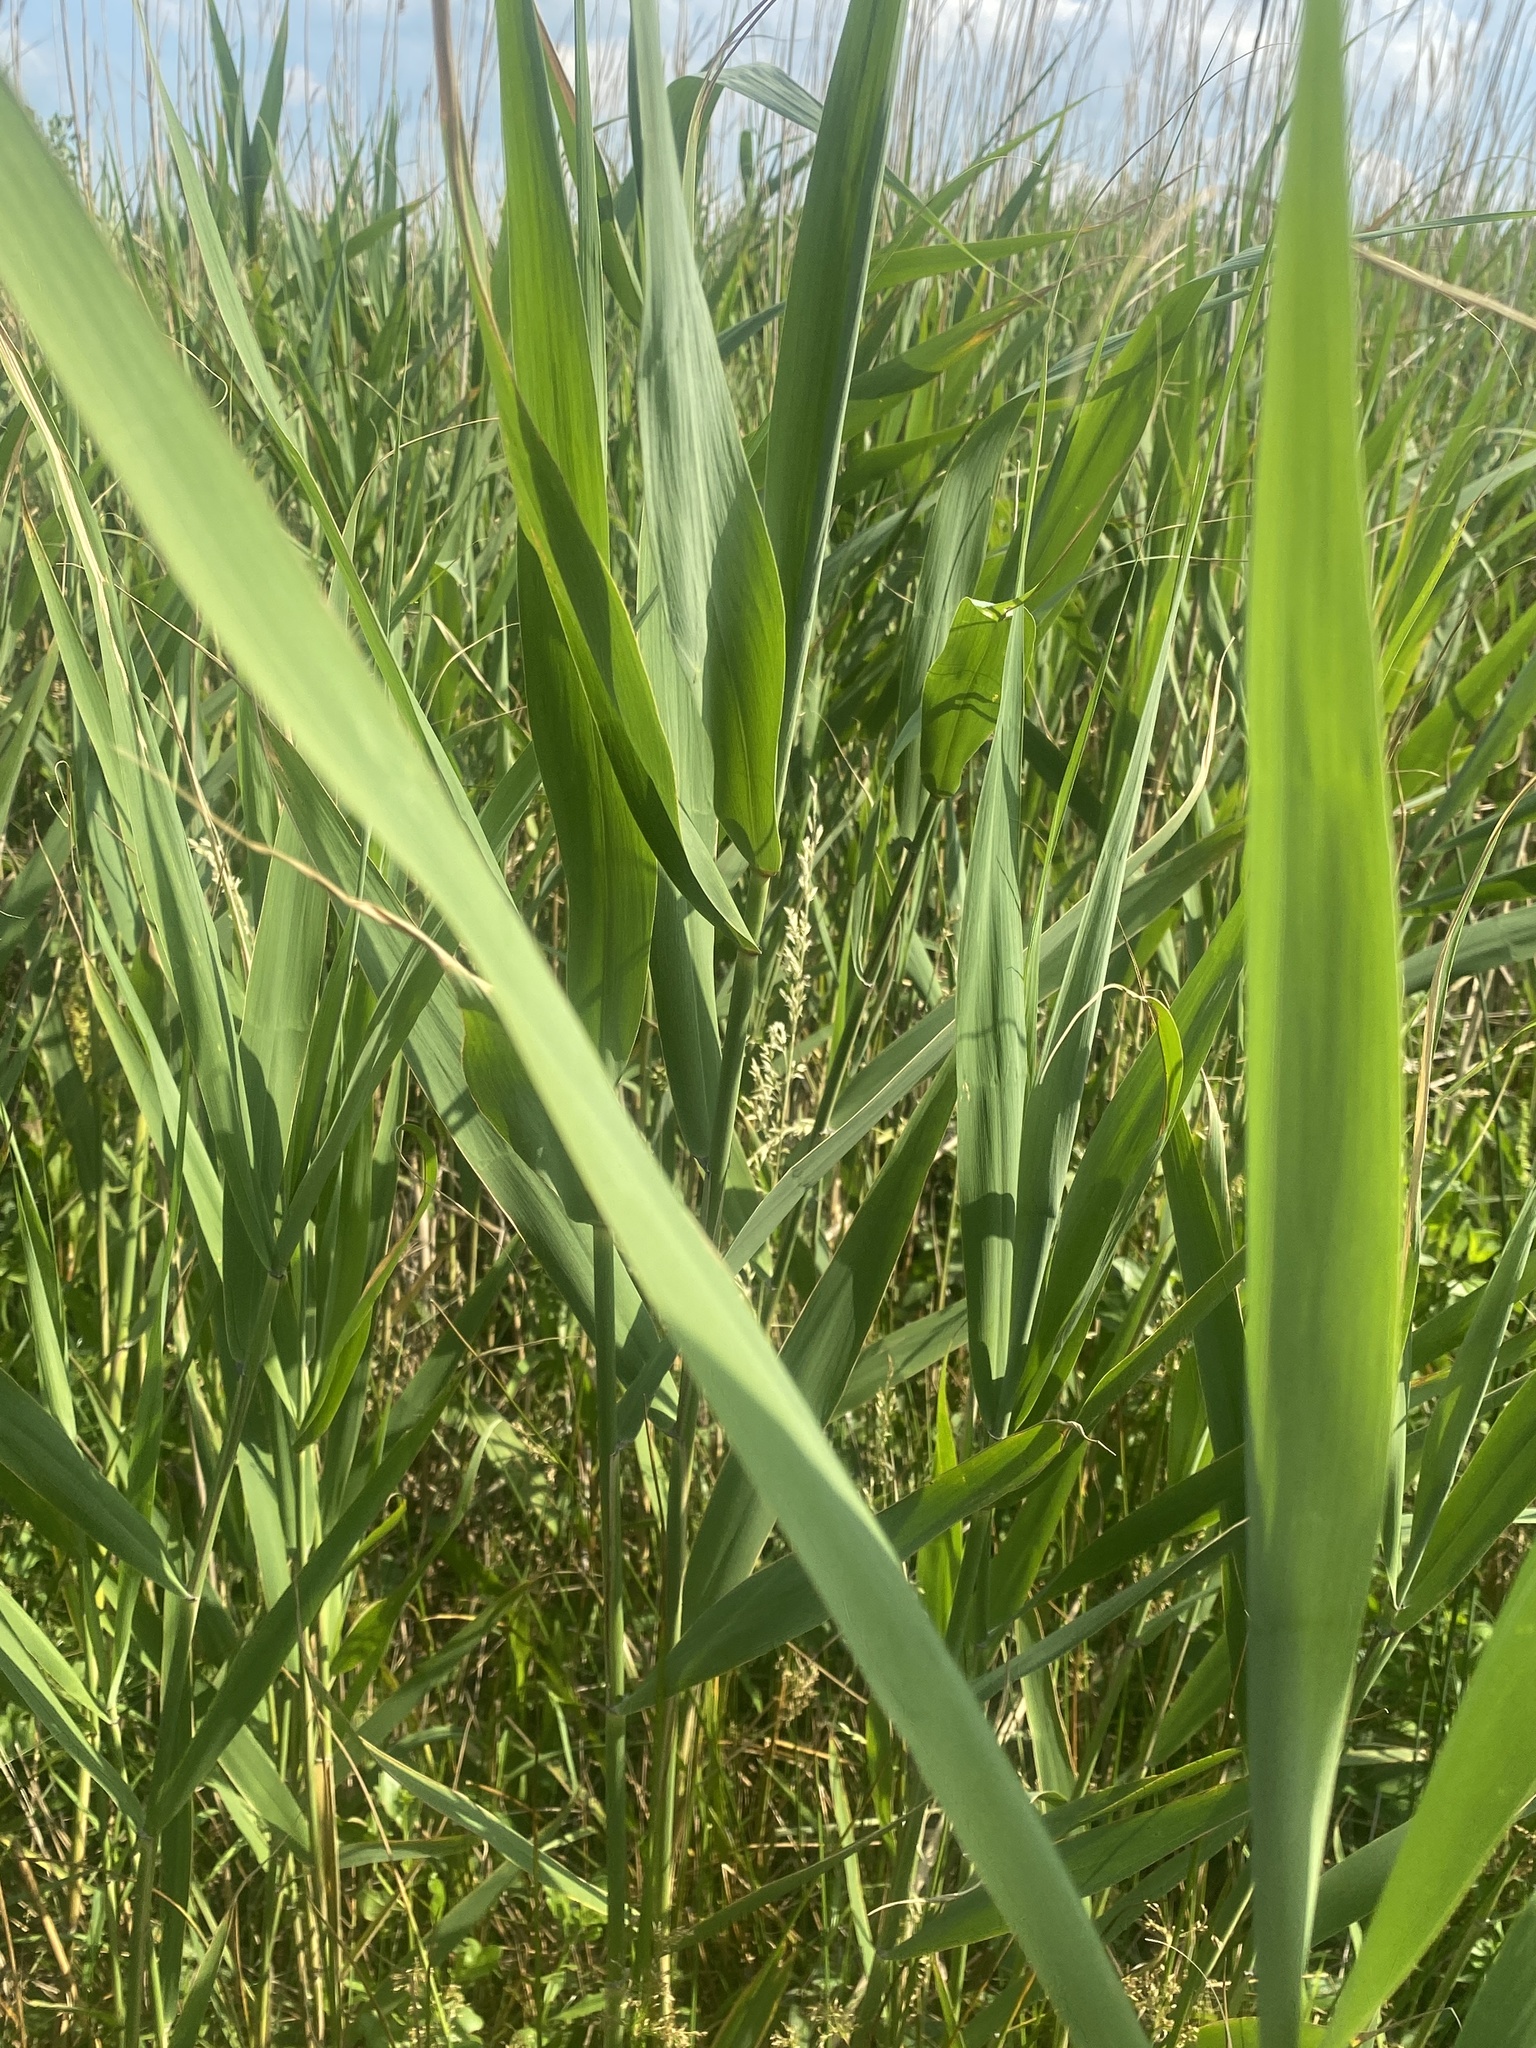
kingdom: Plantae
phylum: Tracheophyta
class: Liliopsida
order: Poales
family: Poaceae
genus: Phragmites
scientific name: Phragmites australis
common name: Common reed
